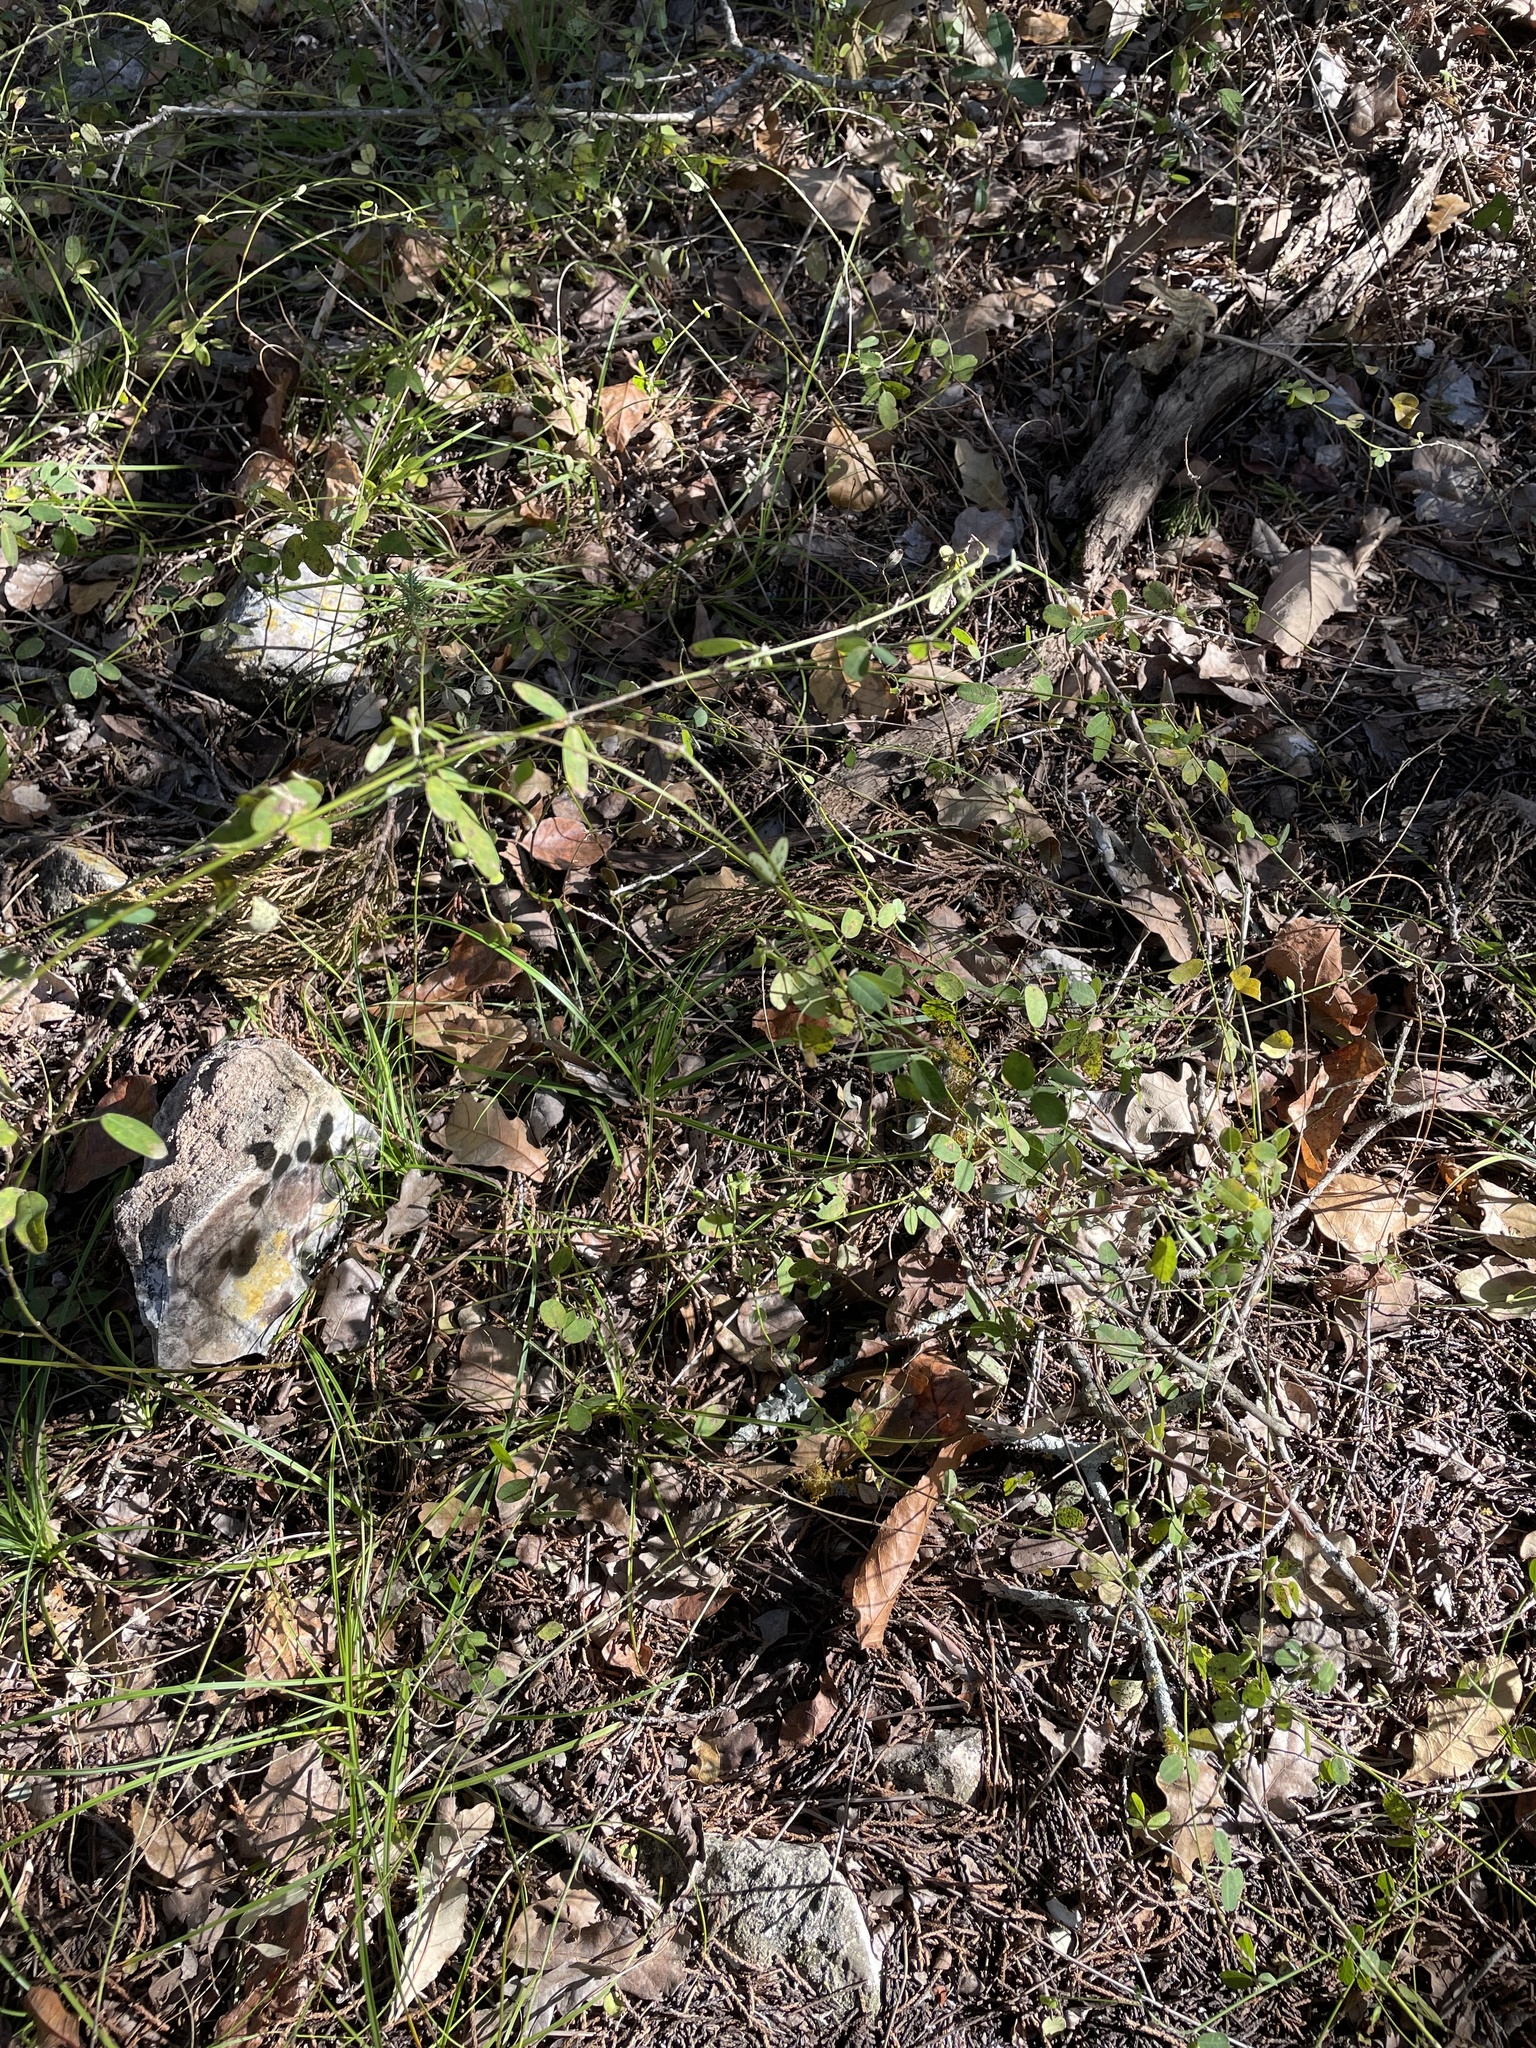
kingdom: Plantae
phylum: Tracheophyta
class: Magnoliopsida
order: Fabales
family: Fabaceae
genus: Lespedeza
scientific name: Lespedeza procumbens
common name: Downy trailing bush-clover
